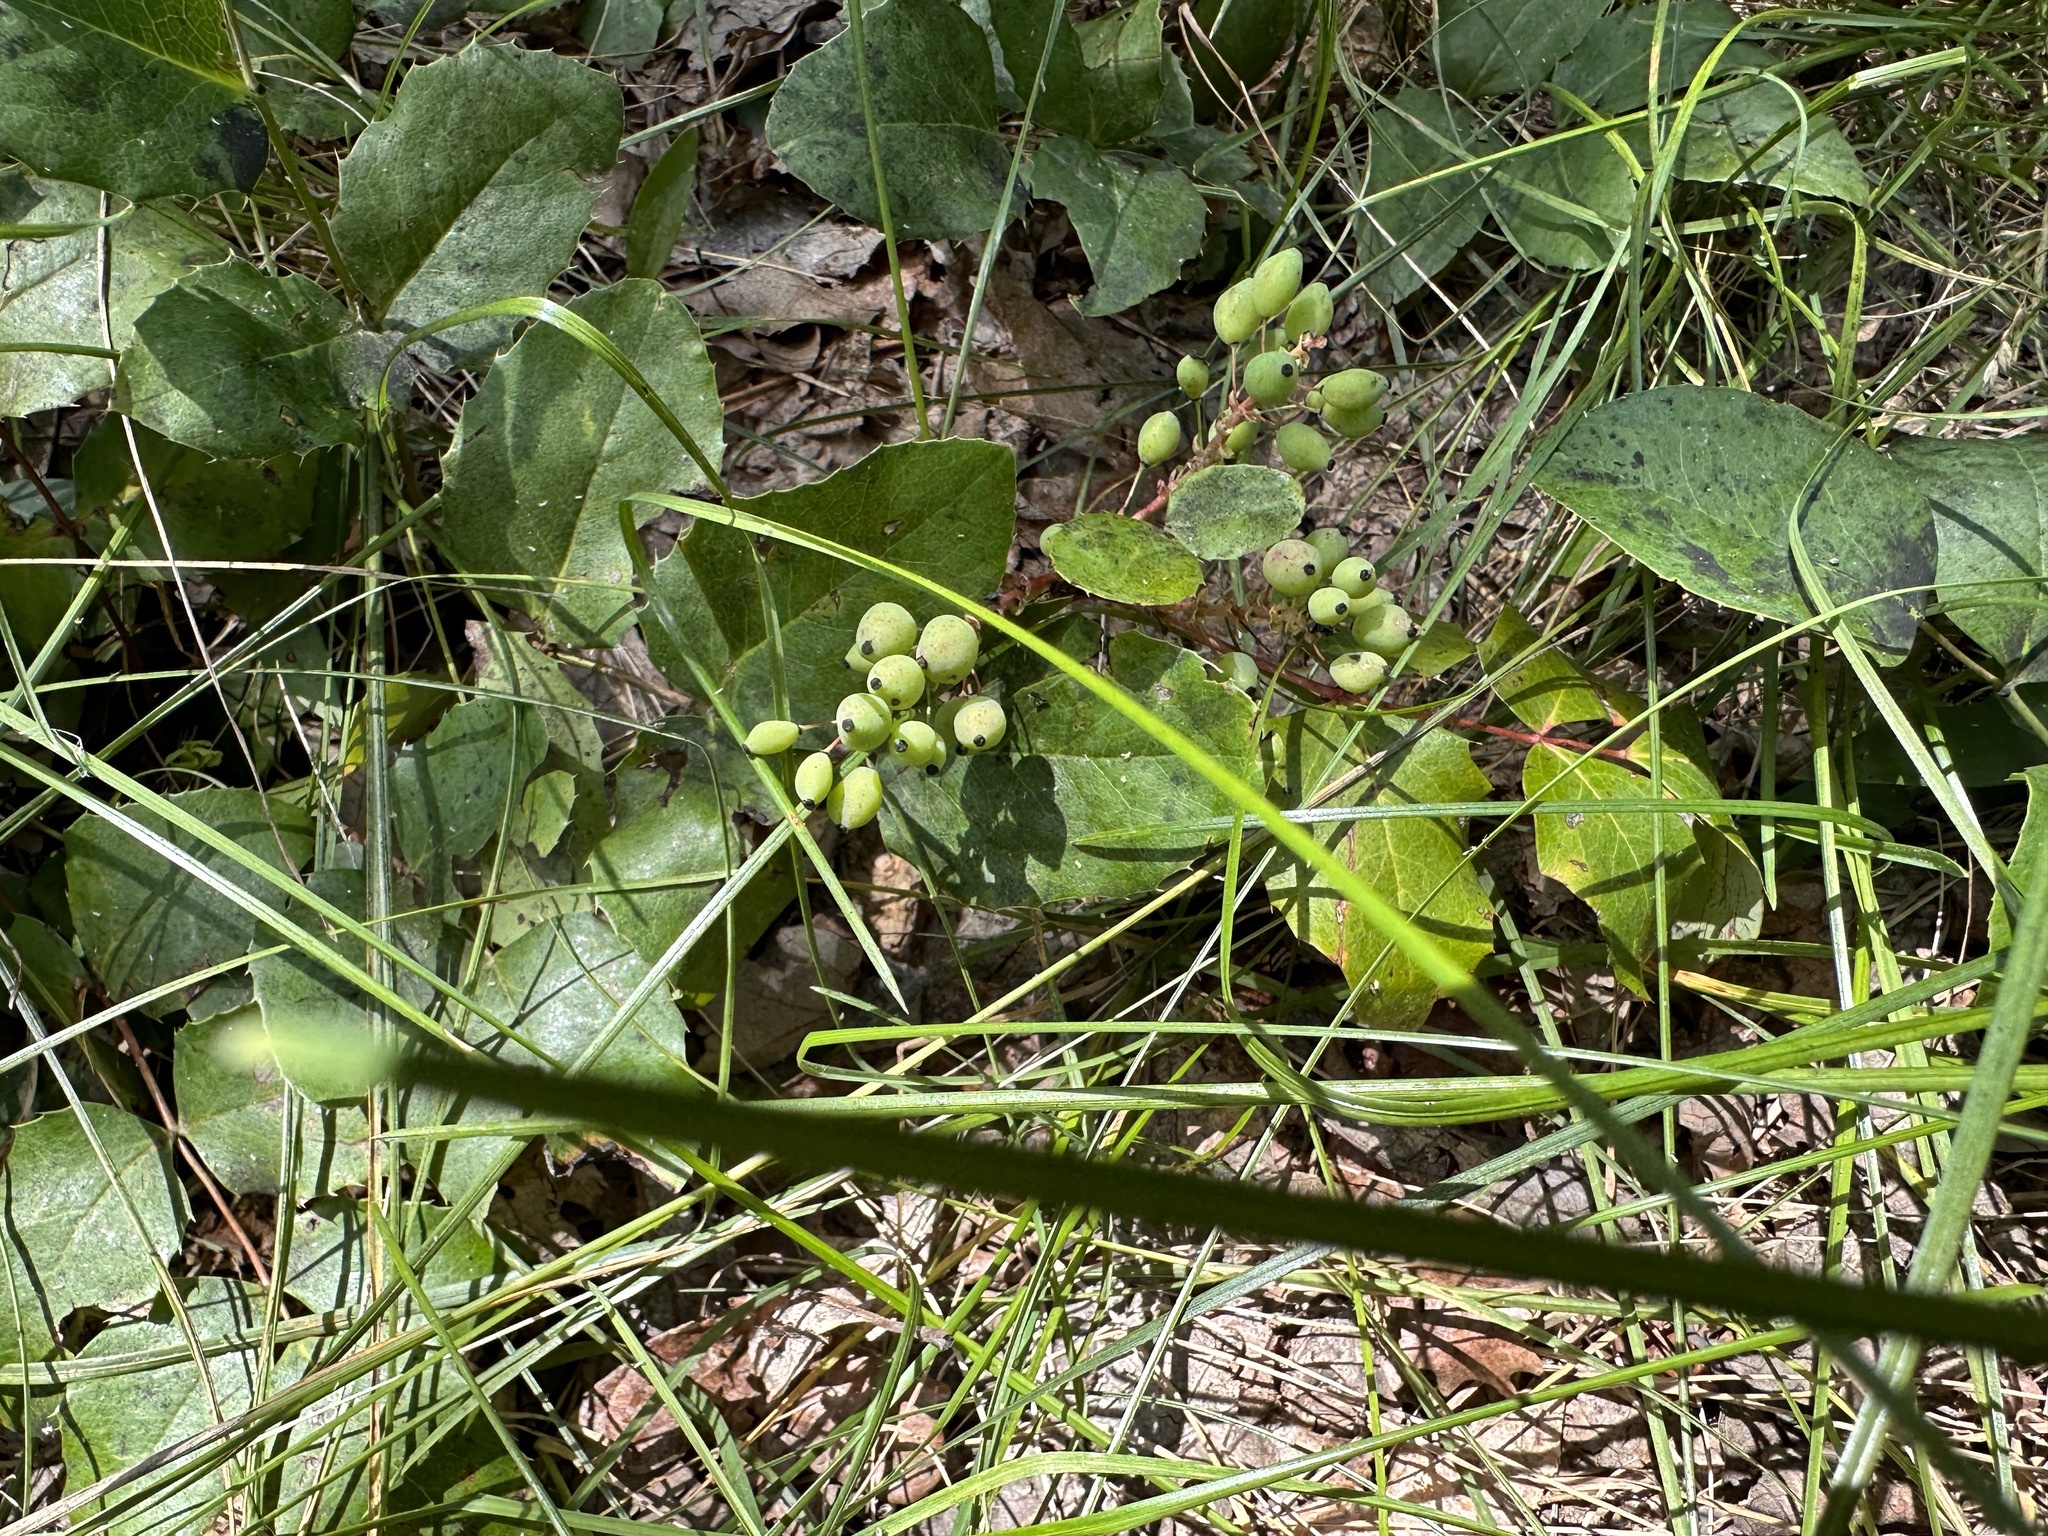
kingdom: Plantae
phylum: Tracheophyta
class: Magnoliopsida
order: Ranunculales
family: Berberidaceae
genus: Mahonia
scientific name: Mahonia repens
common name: Creeping oregon-grape
